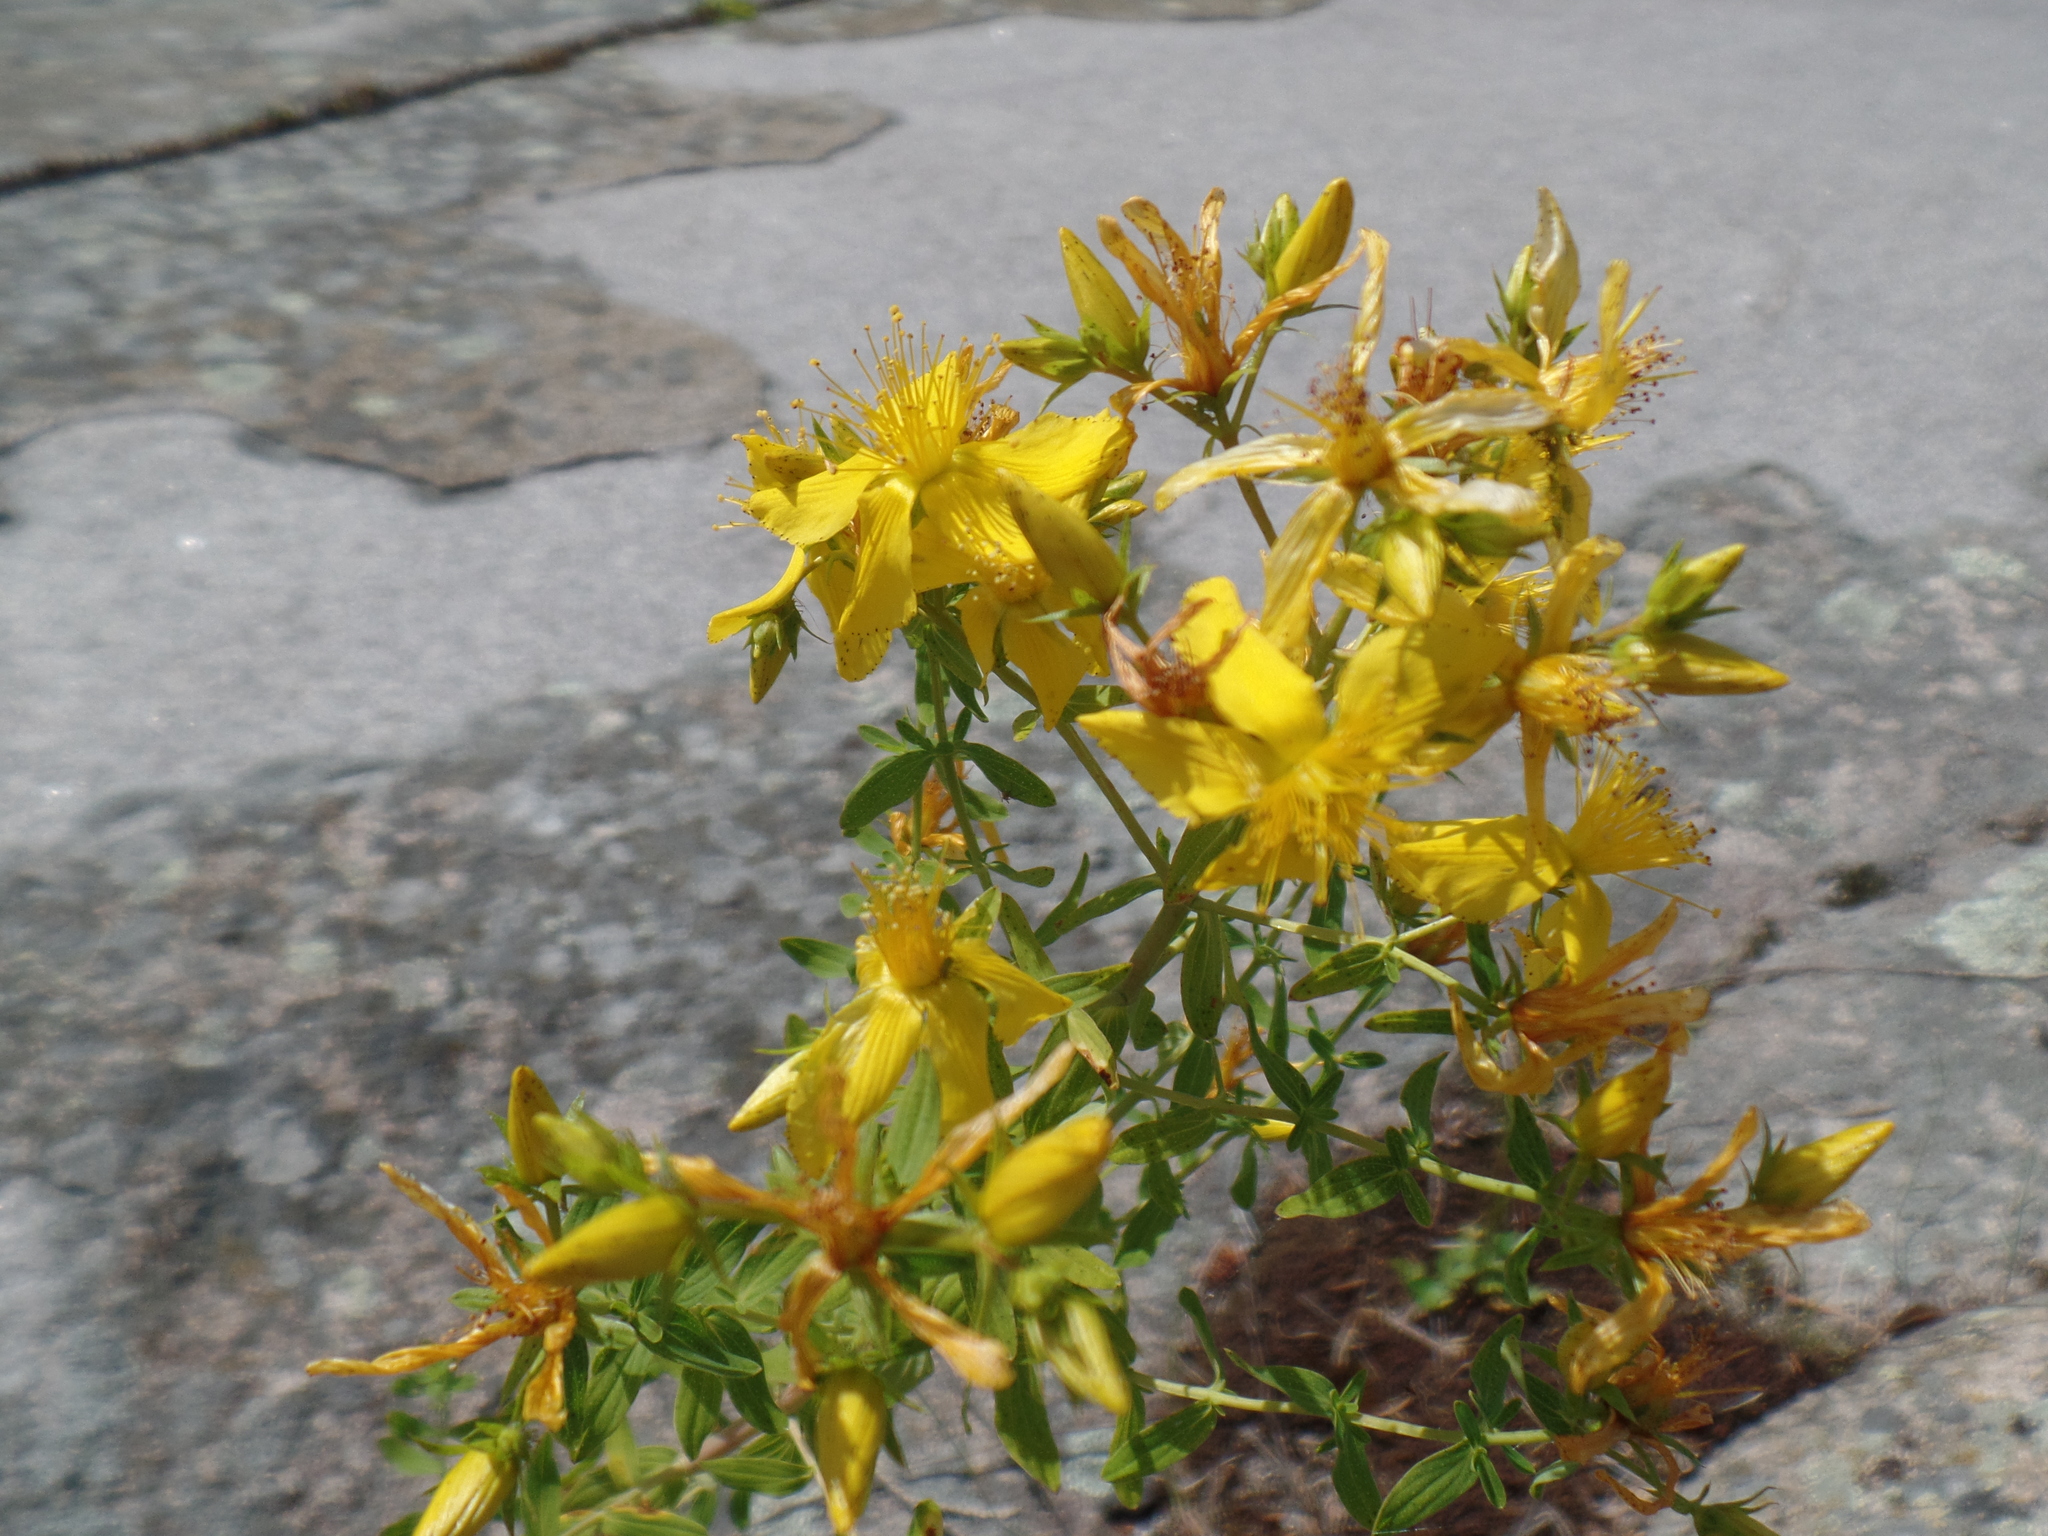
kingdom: Plantae
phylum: Tracheophyta
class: Magnoliopsida
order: Malpighiales
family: Hypericaceae
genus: Hypericum
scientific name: Hypericum perforatum
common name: Common st. johnswort
